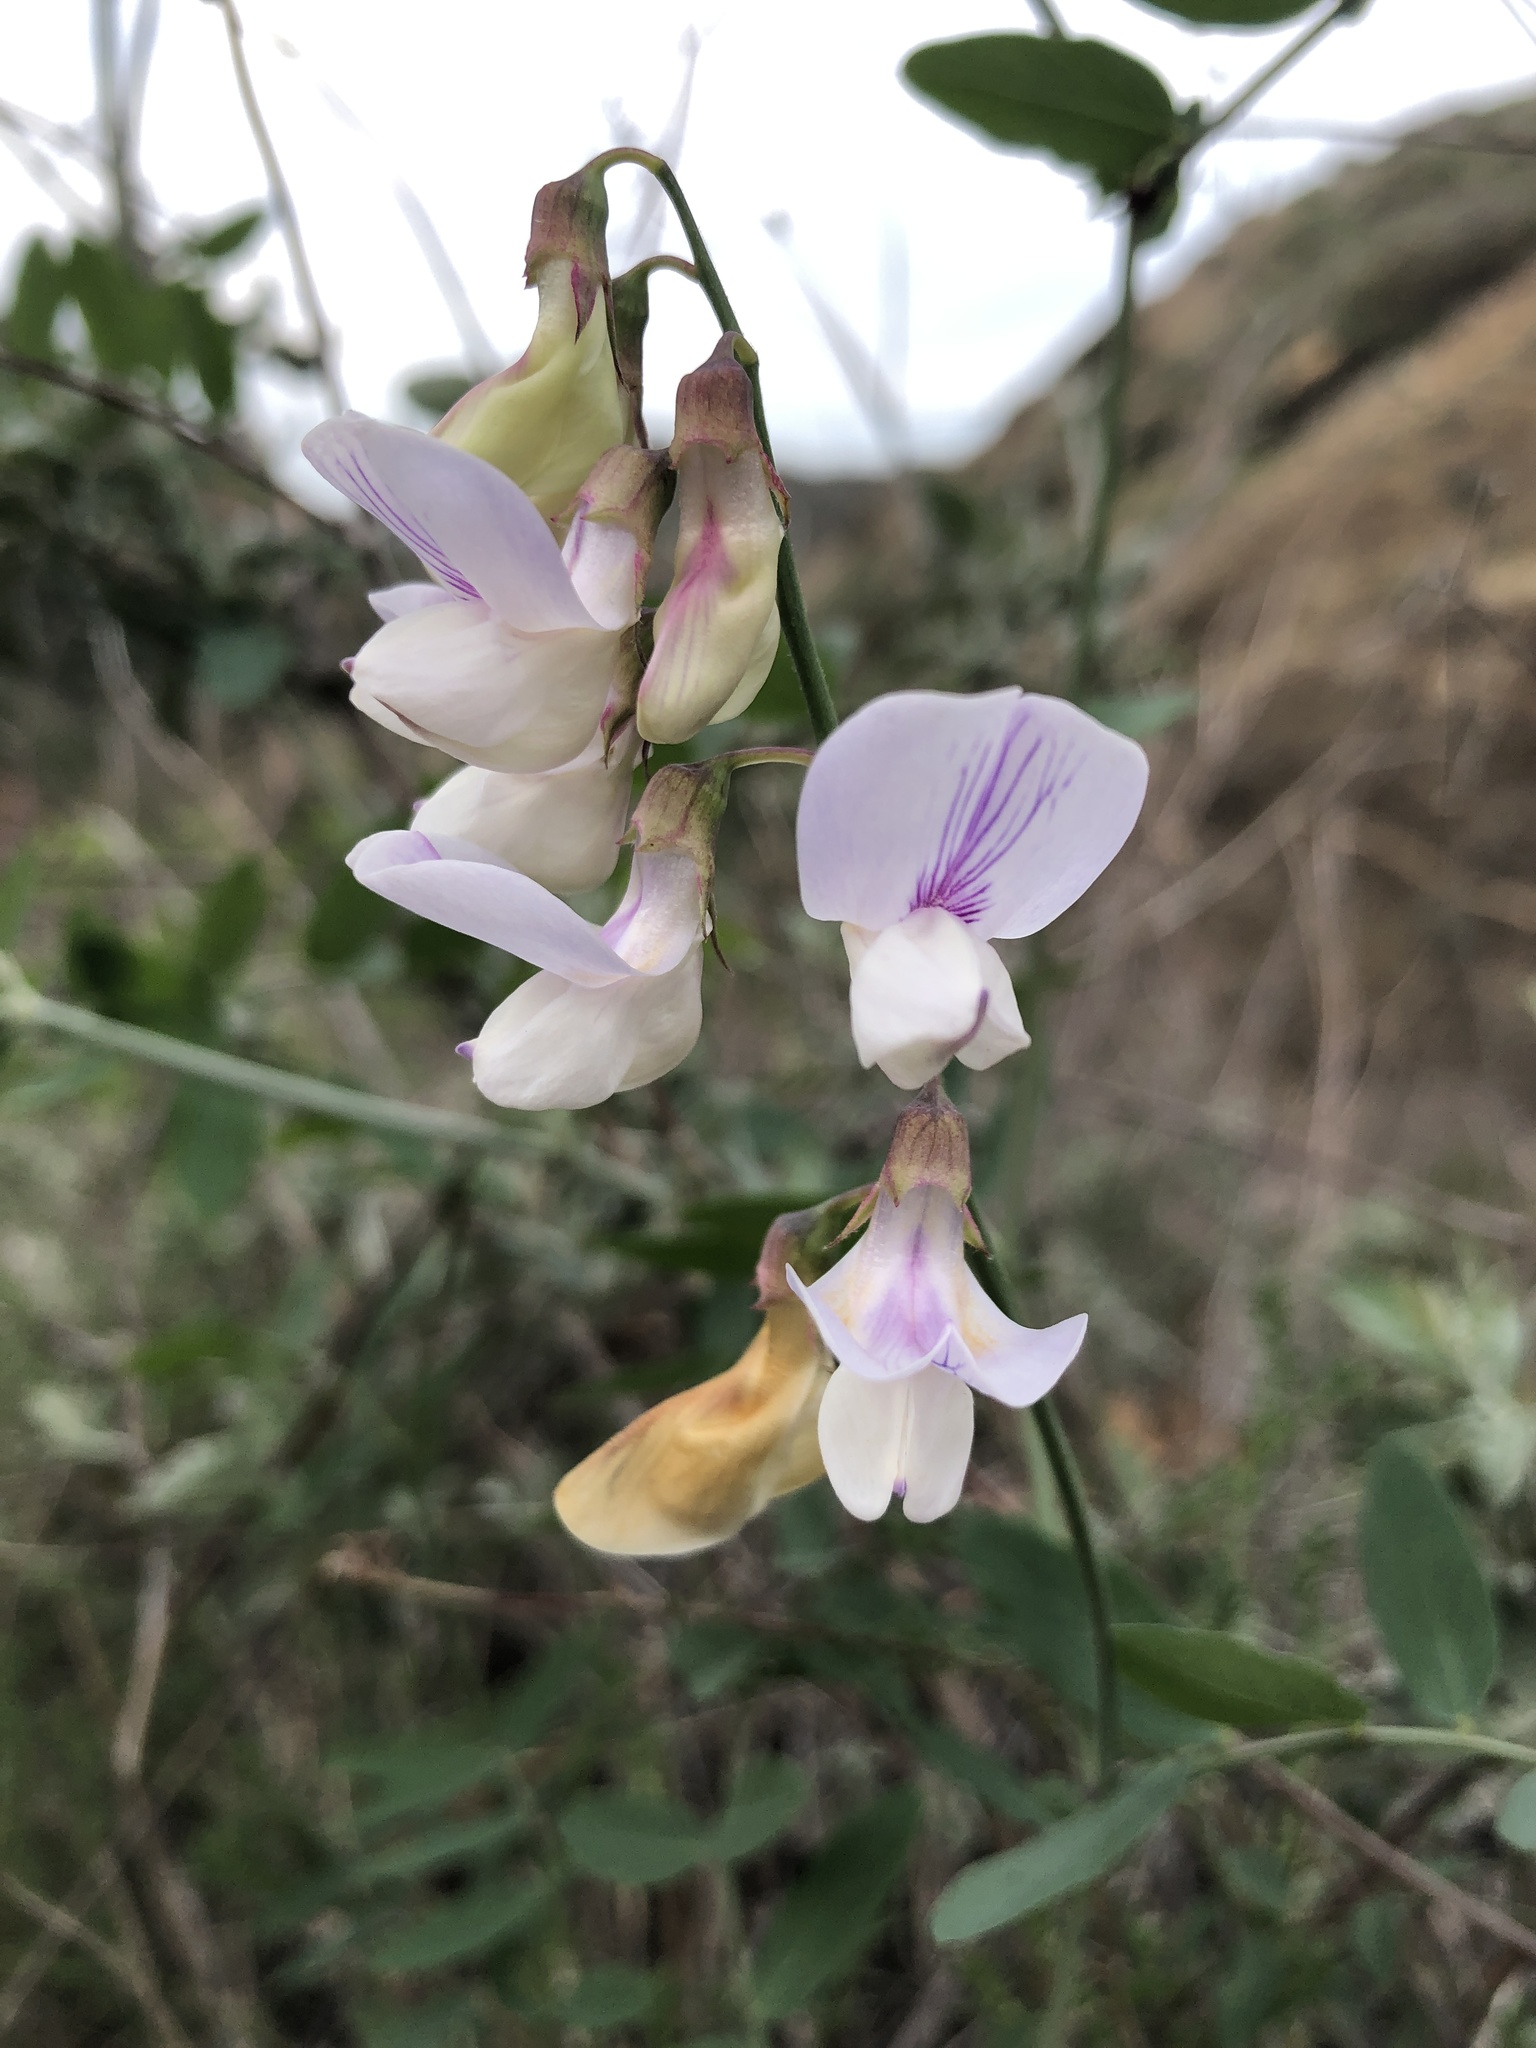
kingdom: Plantae
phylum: Tracheophyta
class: Magnoliopsida
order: Fabales
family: Fabaceae
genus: Lathyrus
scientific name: Lathyrus vestitus
